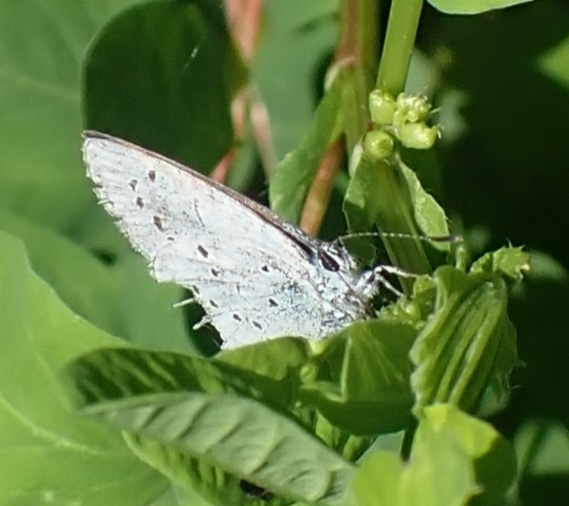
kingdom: Animalia
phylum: Arthropoda
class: Insecta
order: Lepidoptera
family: Lycaenidae
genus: Celastrina
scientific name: Celastrina argiolus
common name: Holly blue
